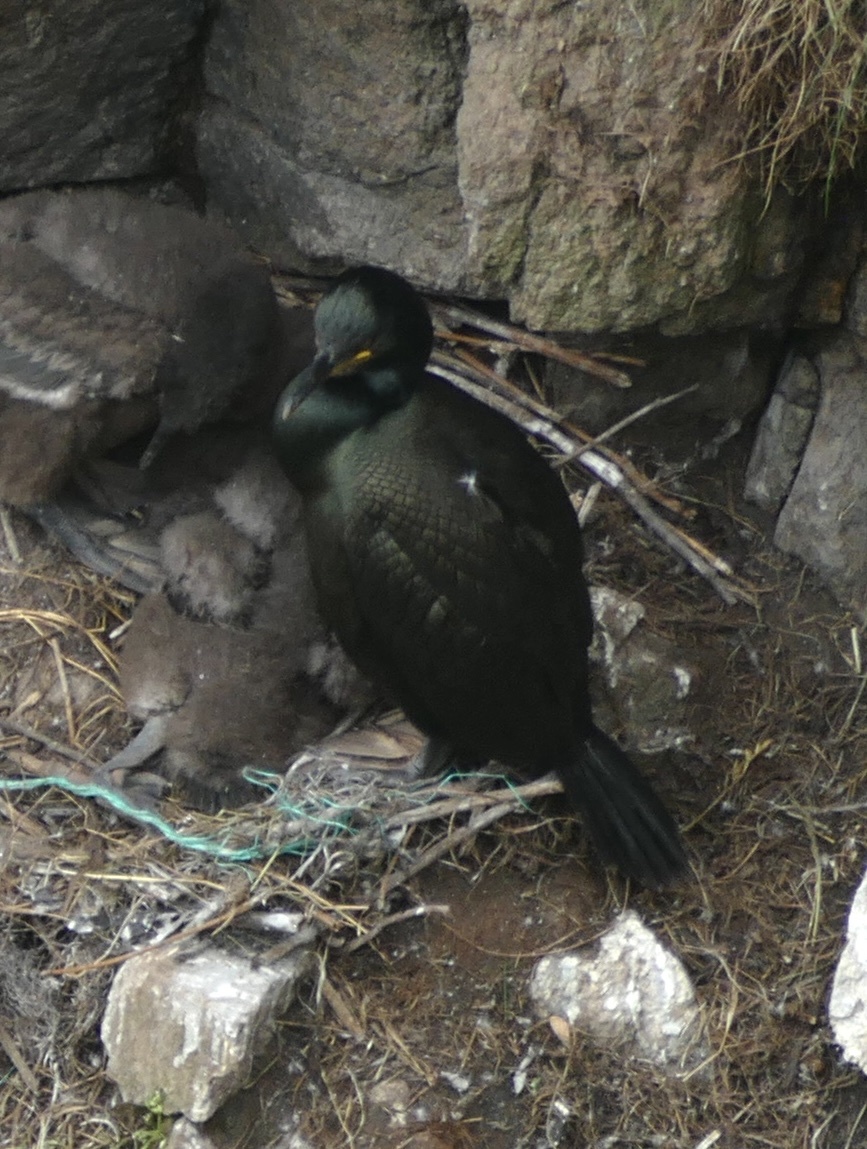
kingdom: Animalia
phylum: Chordata
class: Aves
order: Suliformes
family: Phalacrocoracidae
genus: Phalacrocorax
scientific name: Phalacrocorax aristotelis
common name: European shag
